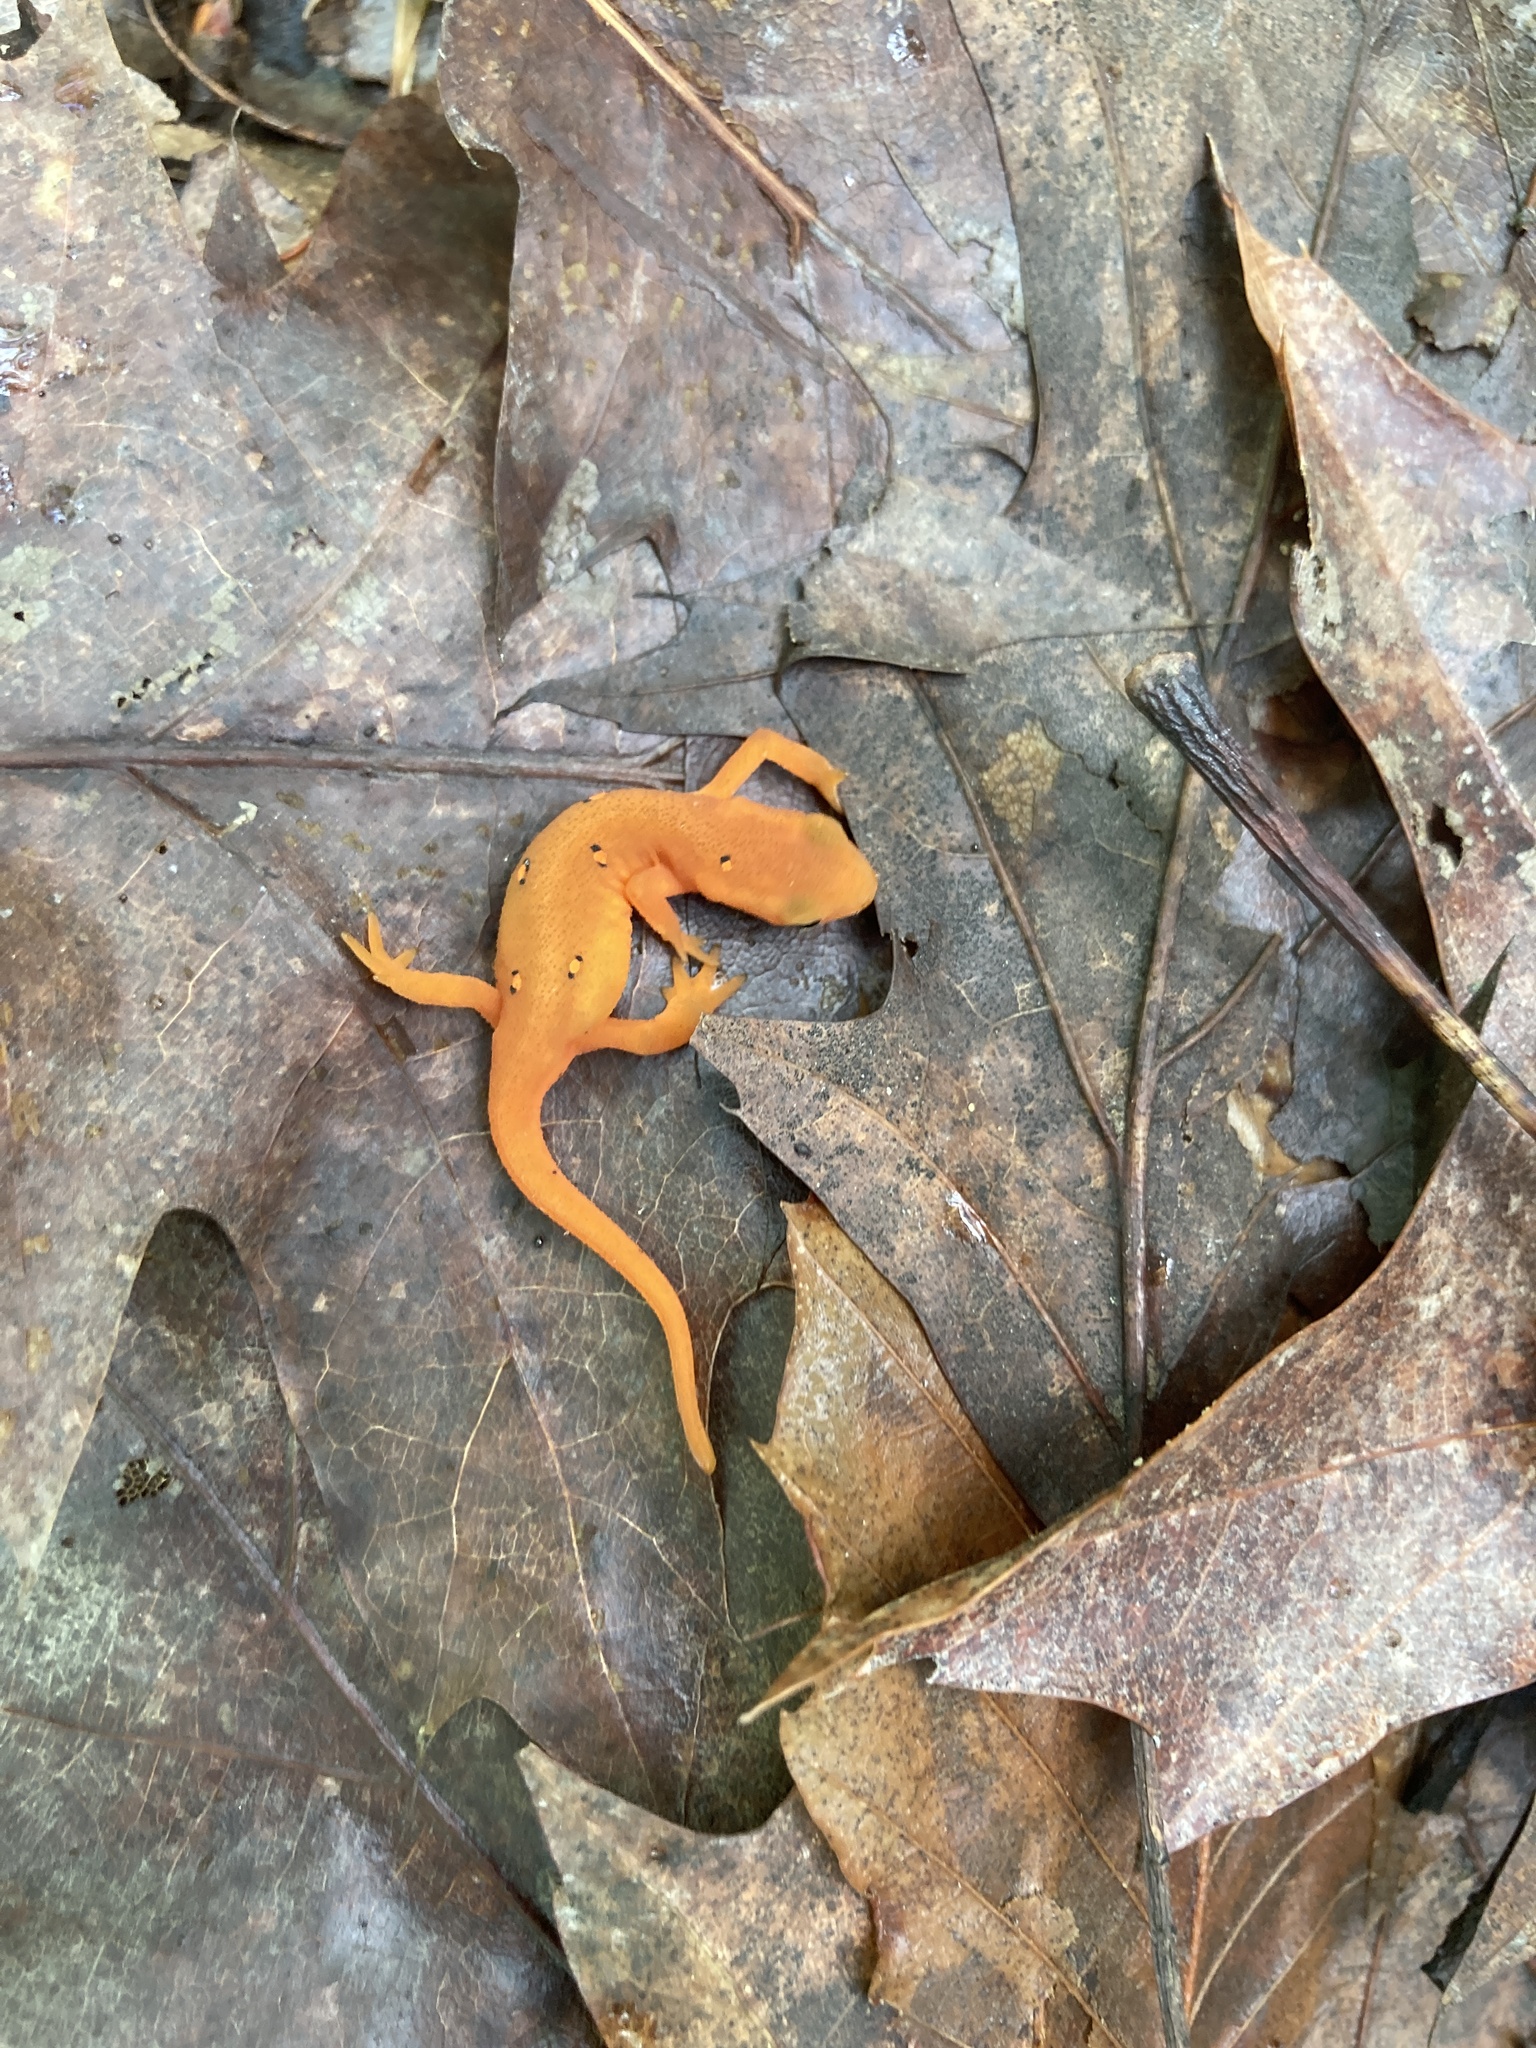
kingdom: Animalia
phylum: Chordata
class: Amphibia
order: Caudata
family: Salamandridae
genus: Notophthalmus
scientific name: Notophthalmus viridescens
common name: Eastern newt
